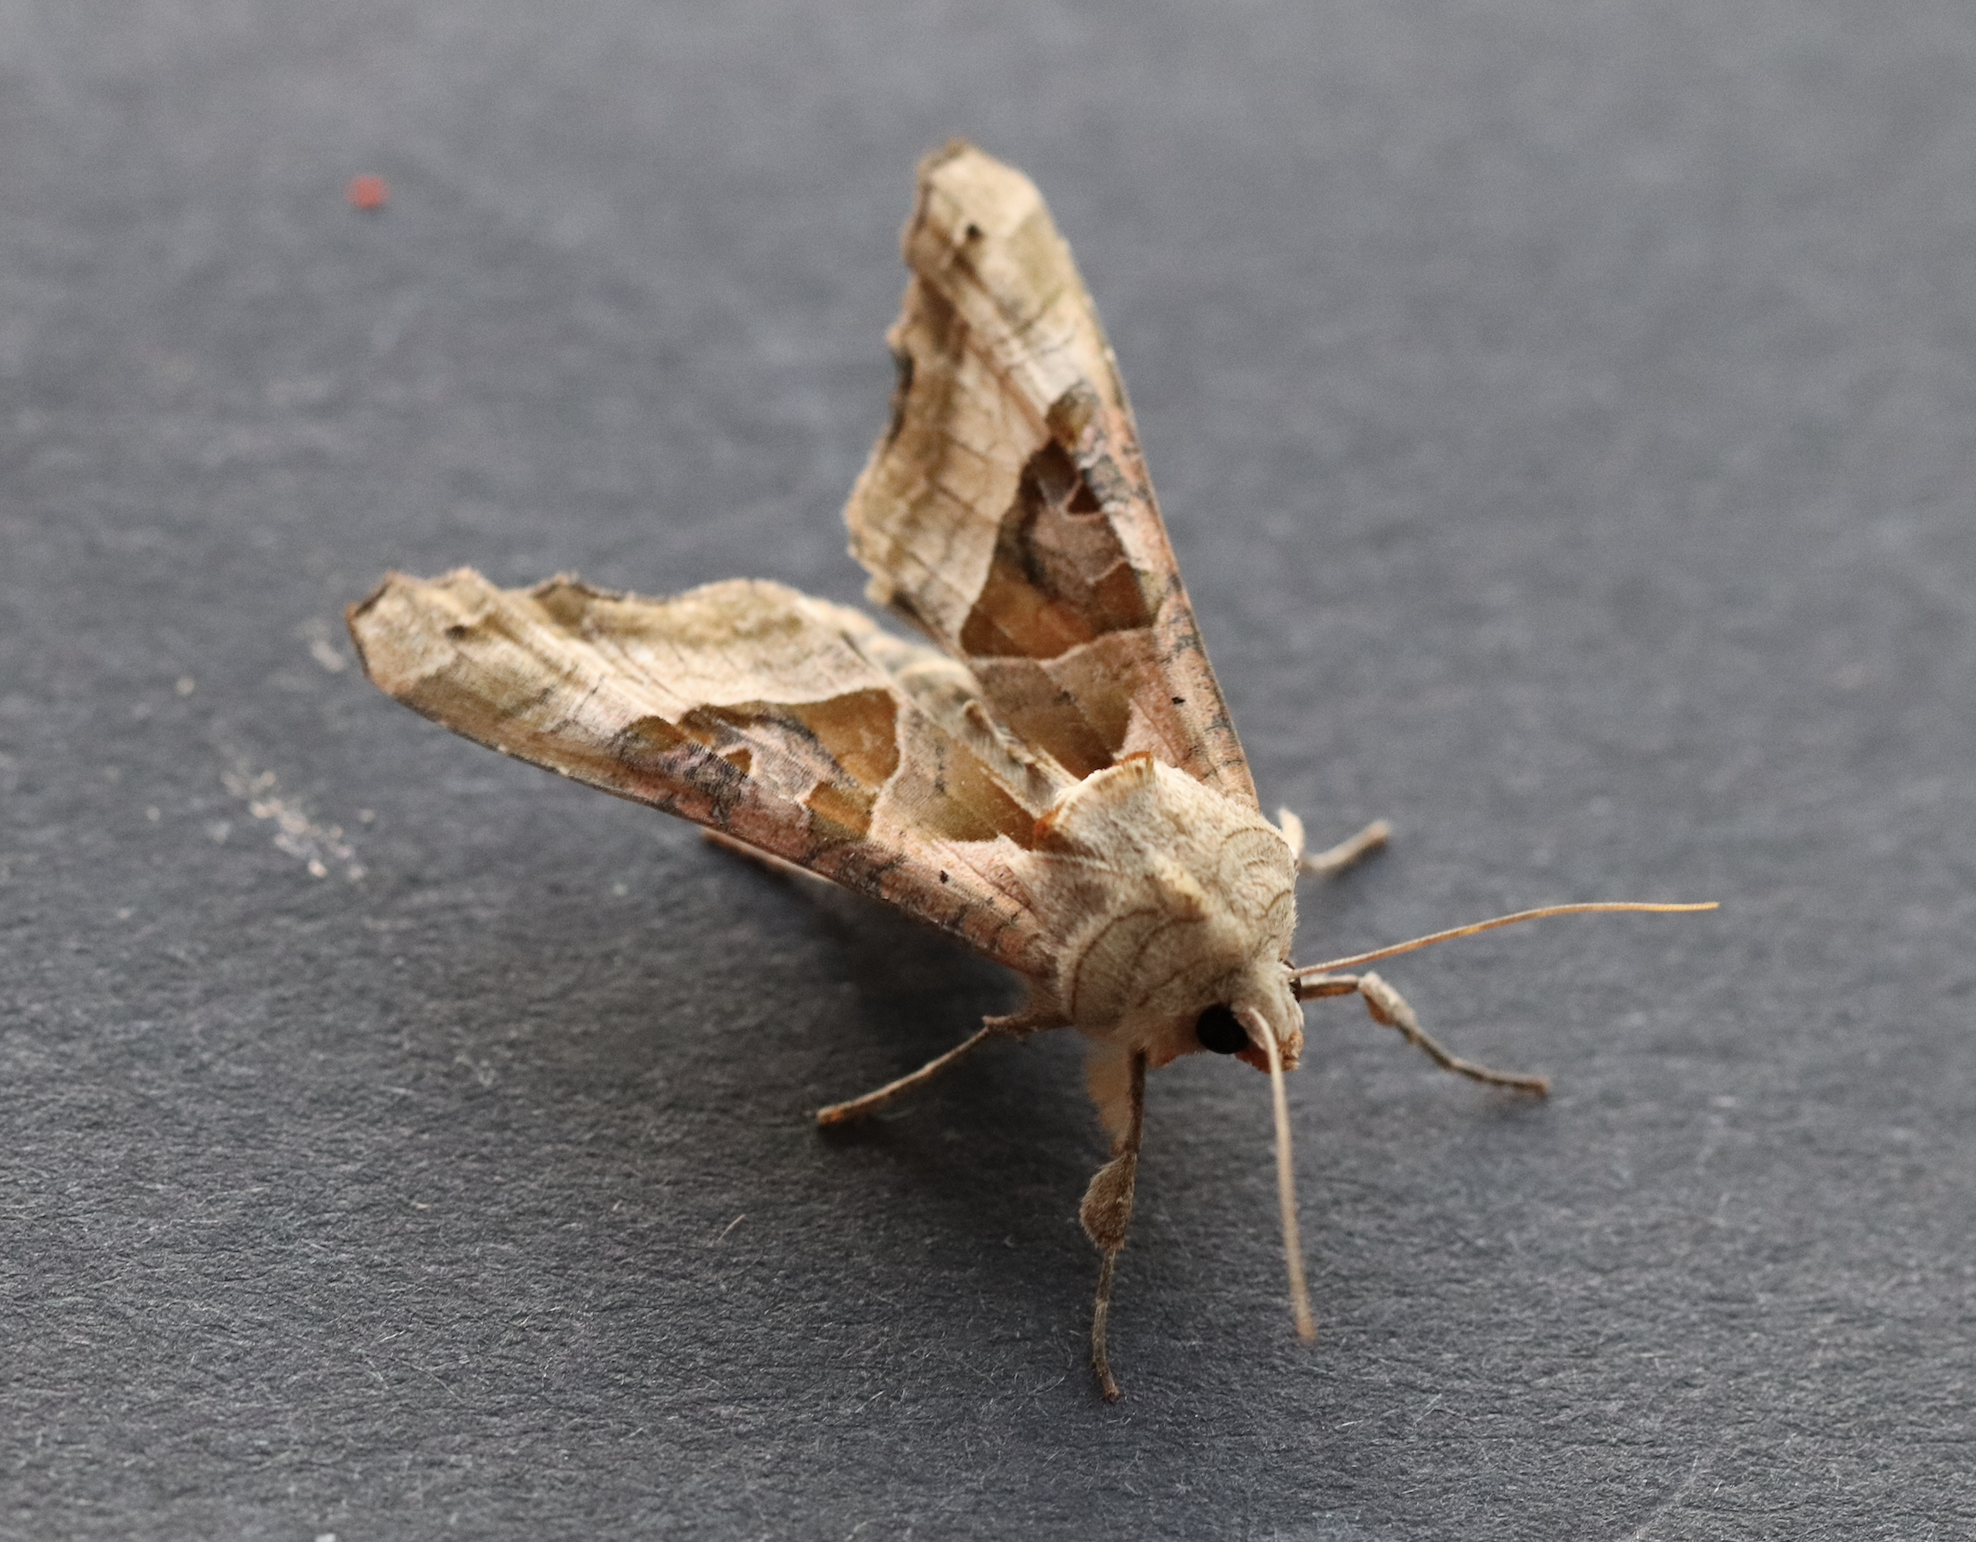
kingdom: Animalia
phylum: Arthropoda
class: Insecta
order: Lepidoptera
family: Noctuidae
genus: Phlogophora
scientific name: Phlogophora meticulosa
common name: Angle shades
